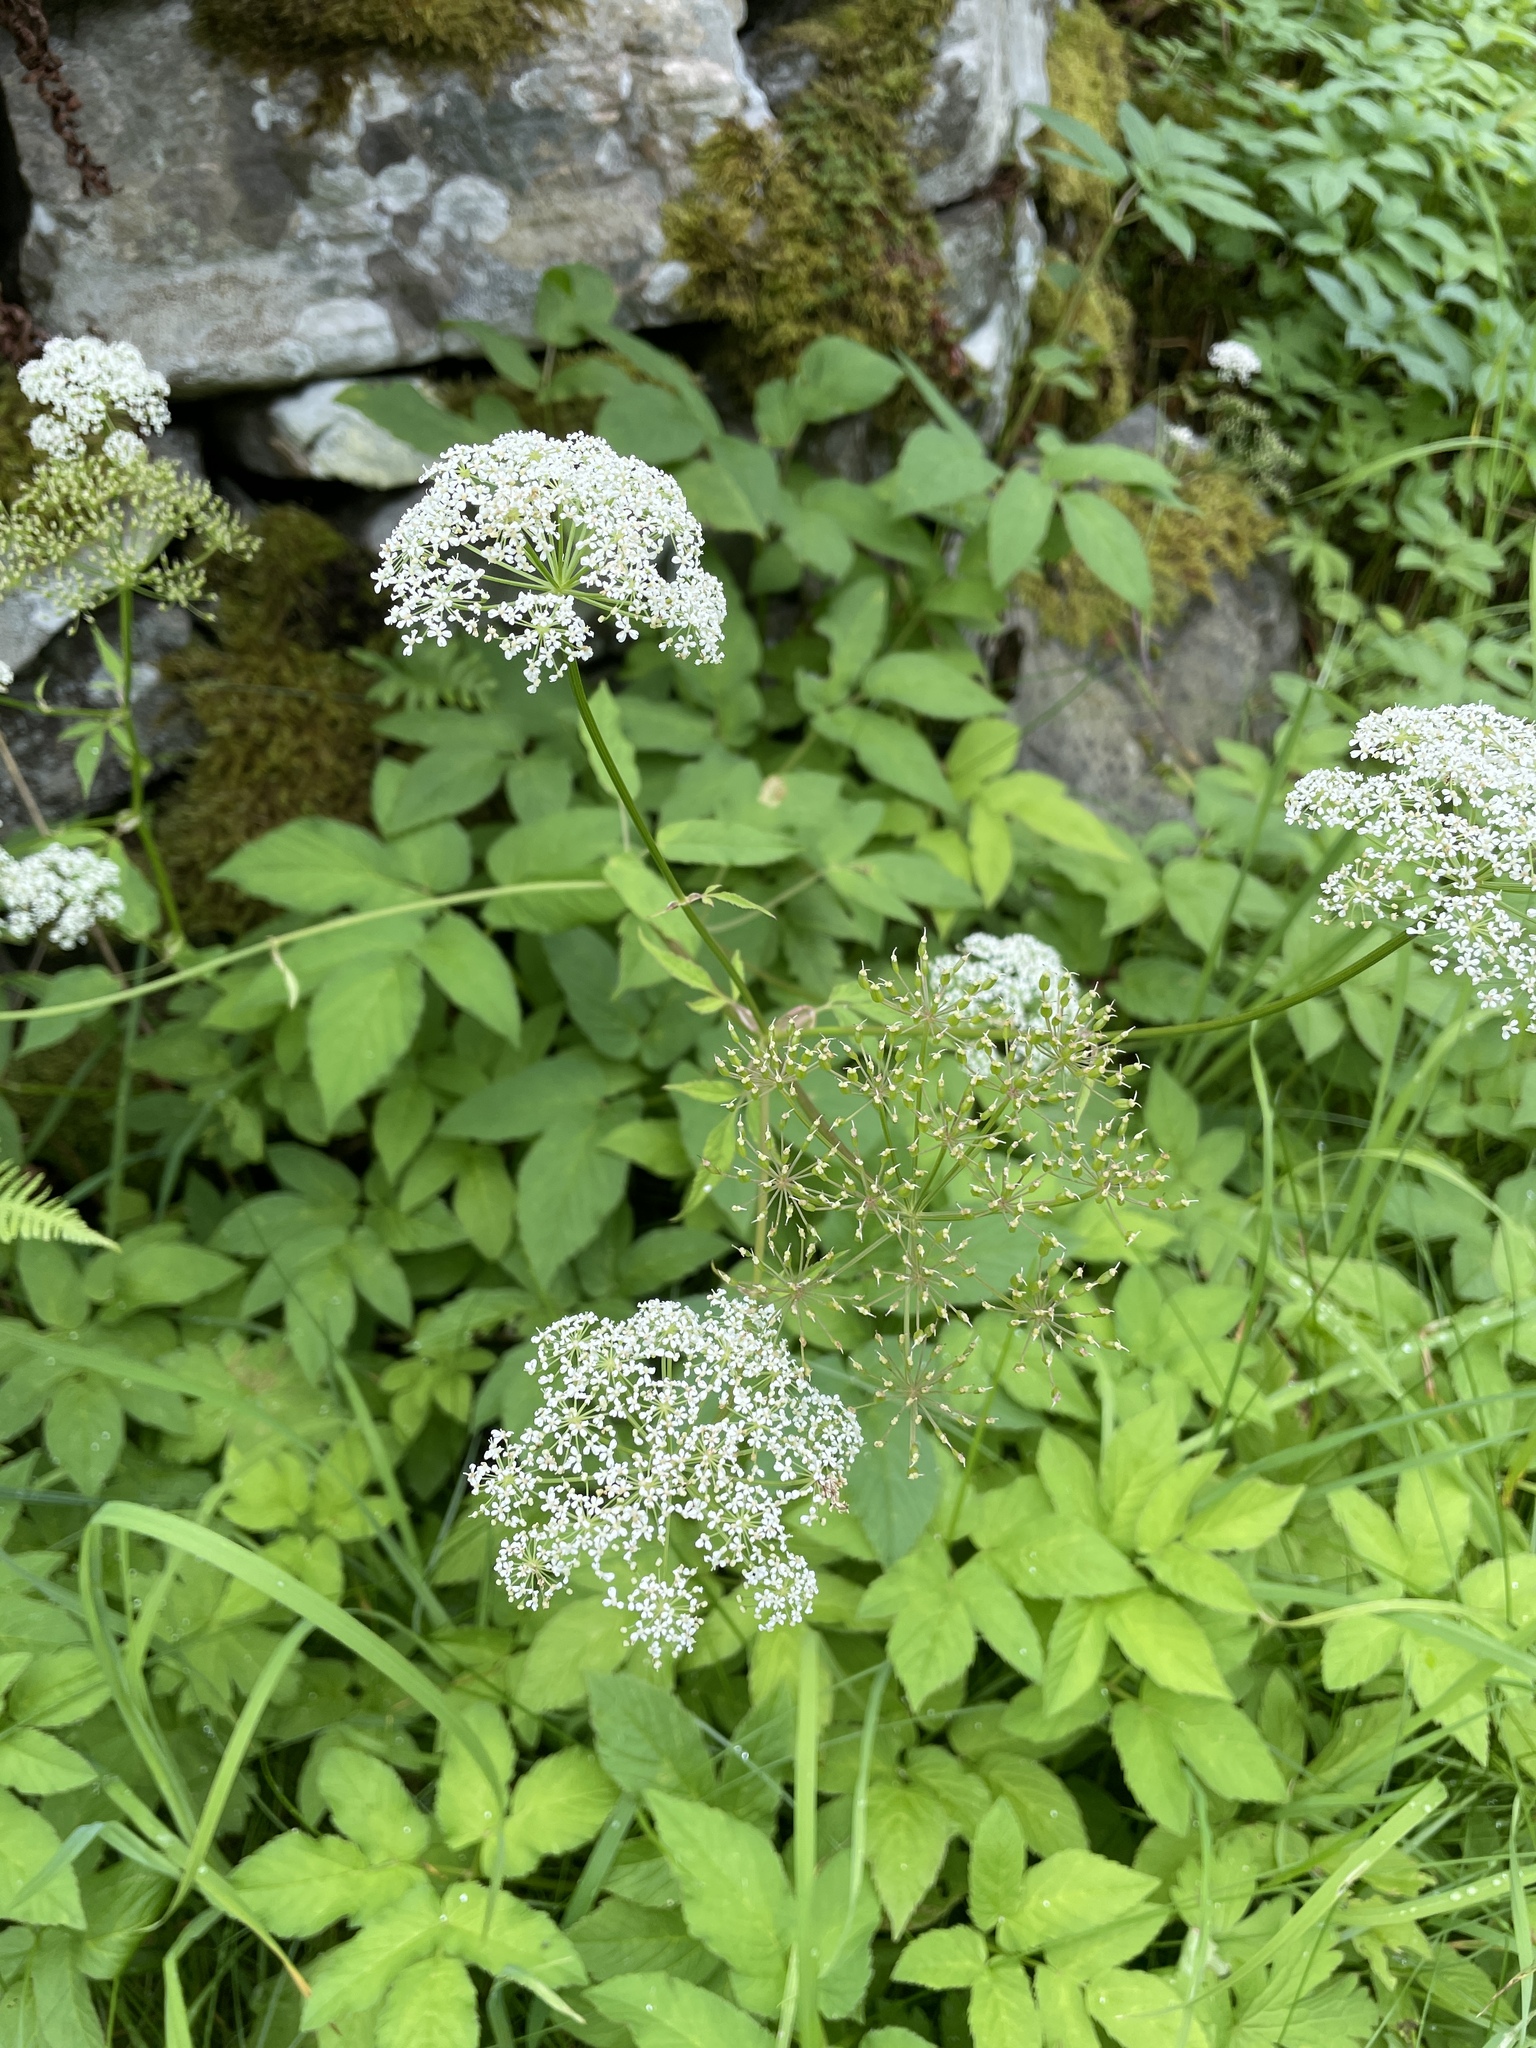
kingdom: Plantae
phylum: Tracheophyta
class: Magnoliopsida
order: Apiales
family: Apiaceae
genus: Aegopodium
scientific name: Aegopodium podagraria
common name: Ground-elder
